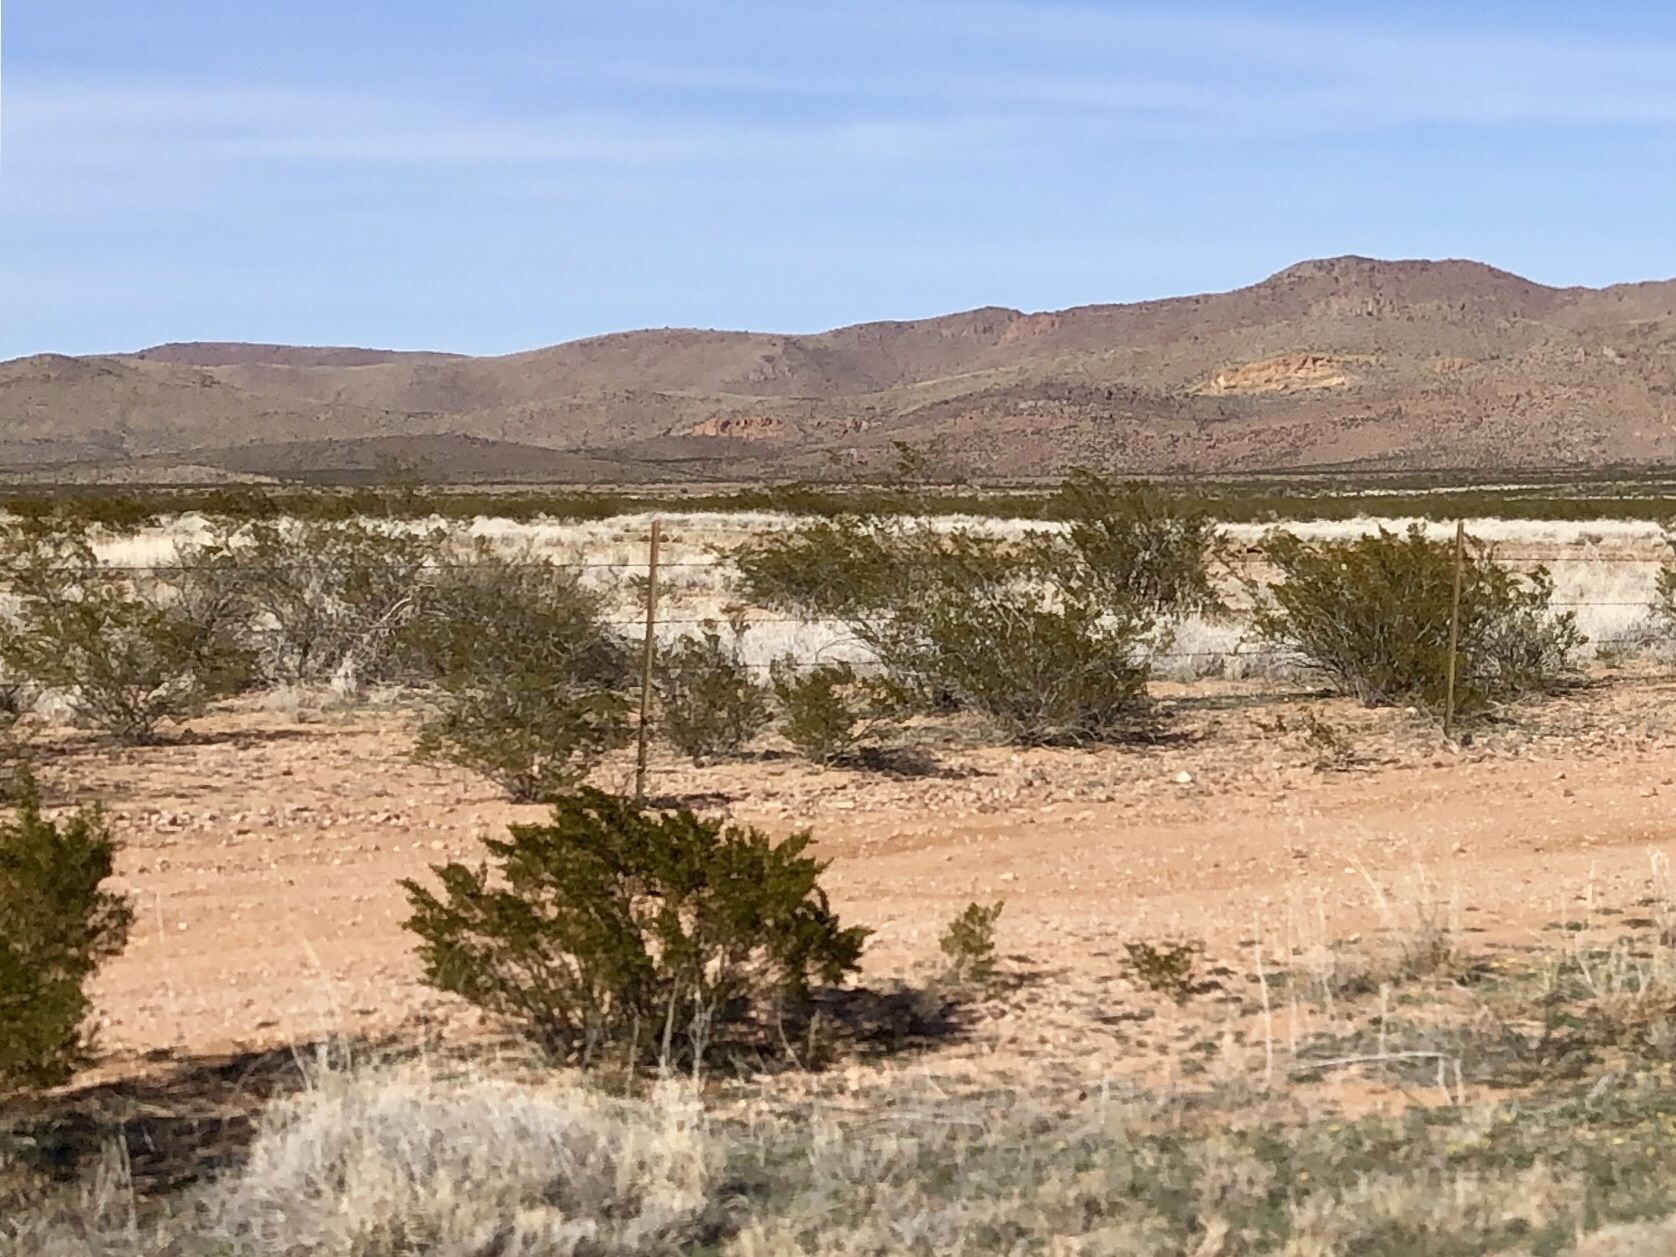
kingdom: Plantae
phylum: Tracheophyta
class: Magnoliopsida
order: Zygophyllales
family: Zygophyllaceae
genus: Larrea
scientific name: Larrea tridentata
